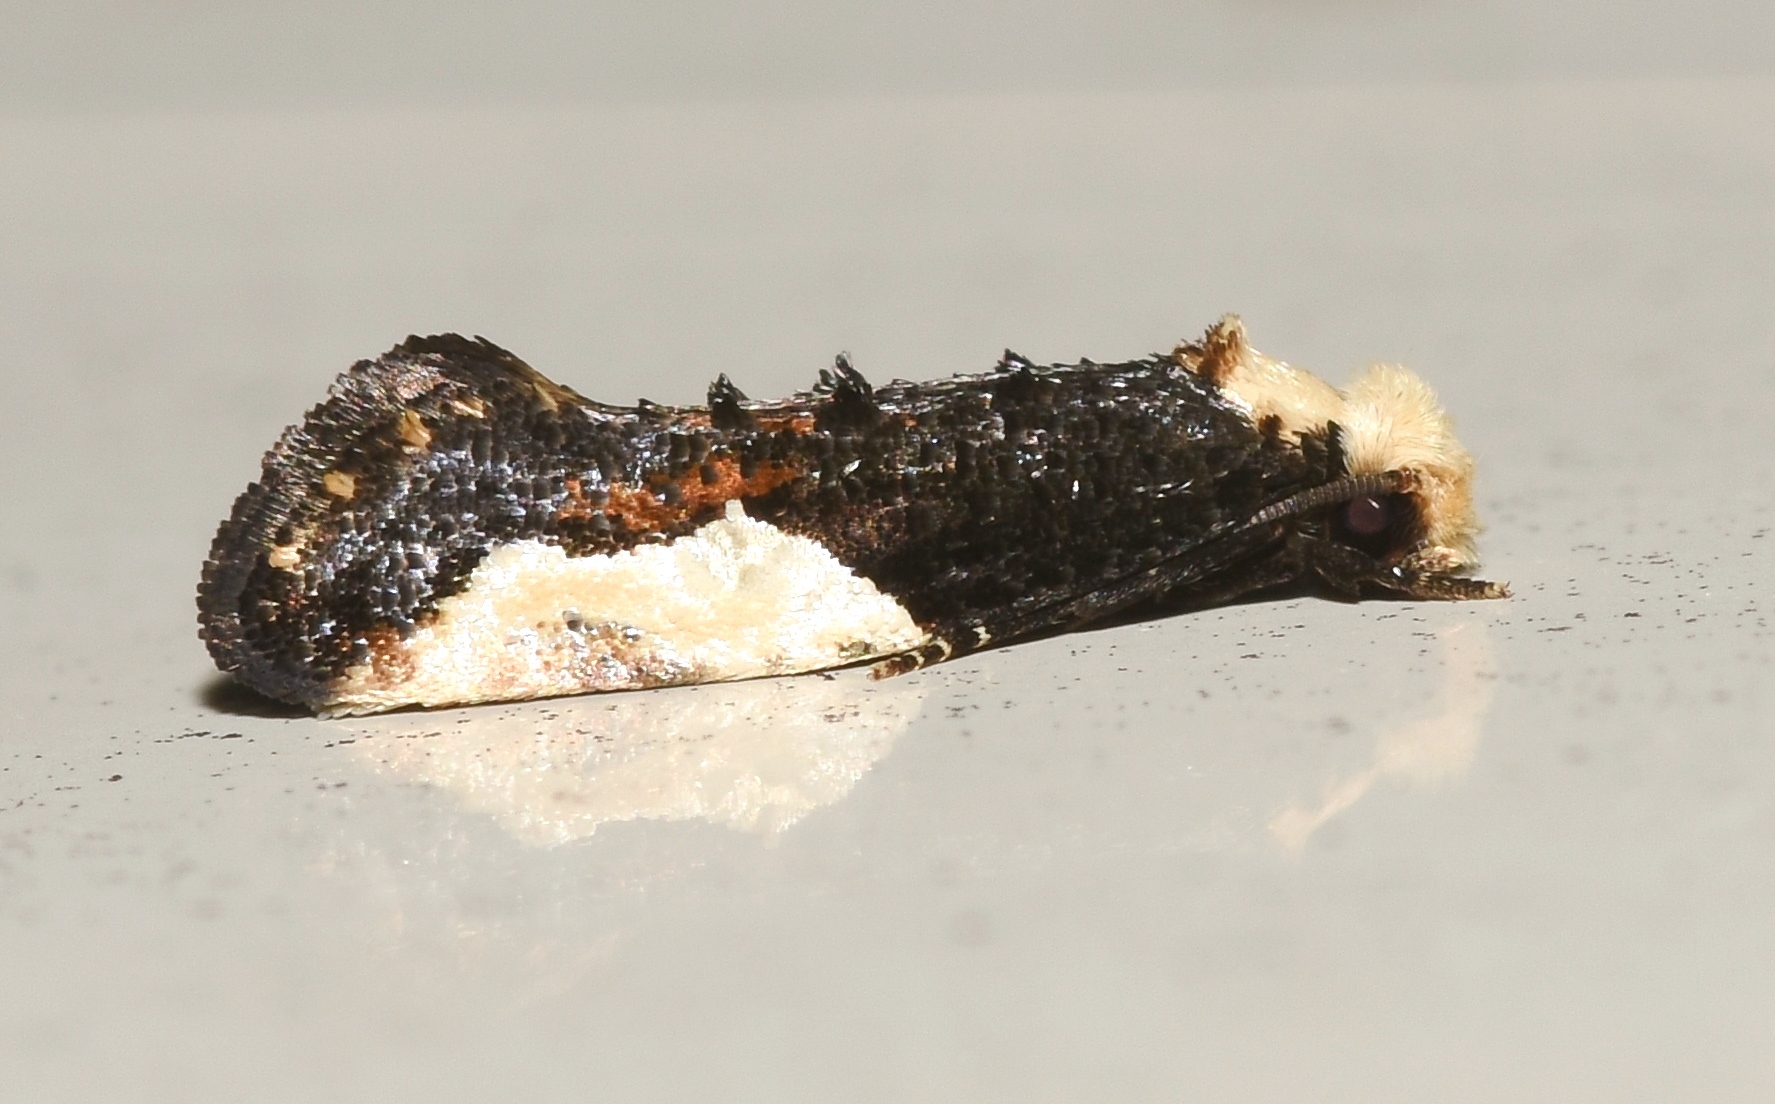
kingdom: Animalia
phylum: Arthropoda
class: Insecta
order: Lepidoptera
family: Tineidae
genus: Monopis
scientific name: Monopis longella
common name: Pavlovski's monopis moth
